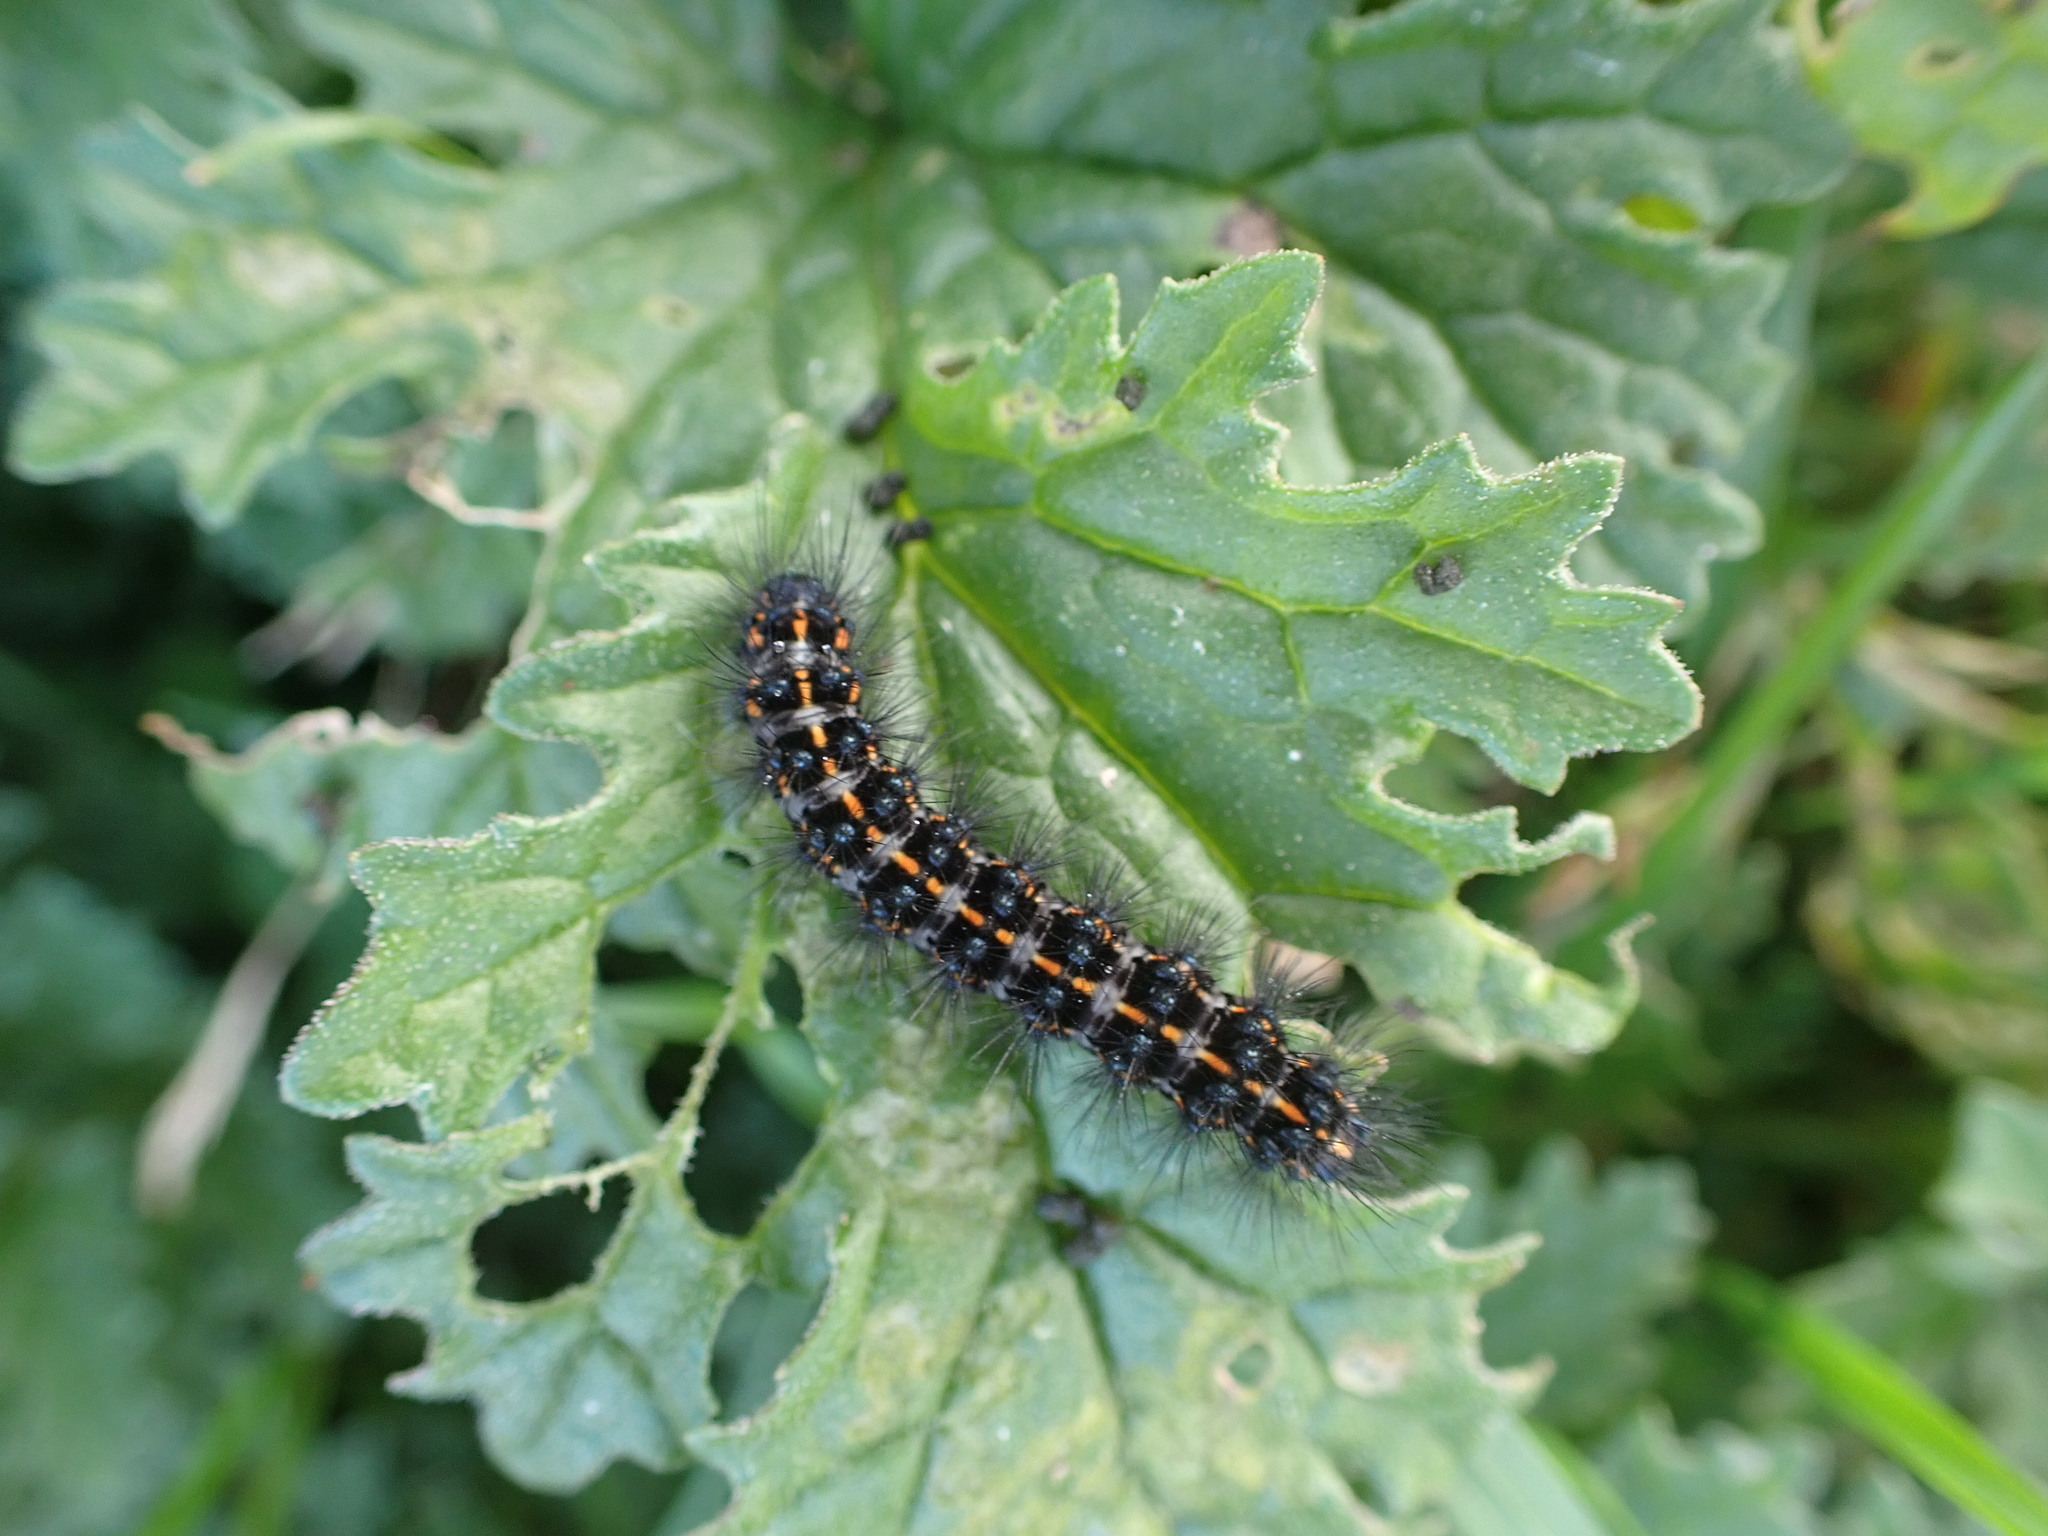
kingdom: Animalia
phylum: Arthropoda
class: Insecta
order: Lepidoptera
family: Erebidae
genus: Nyctemera
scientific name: Nyctemera annulatum
